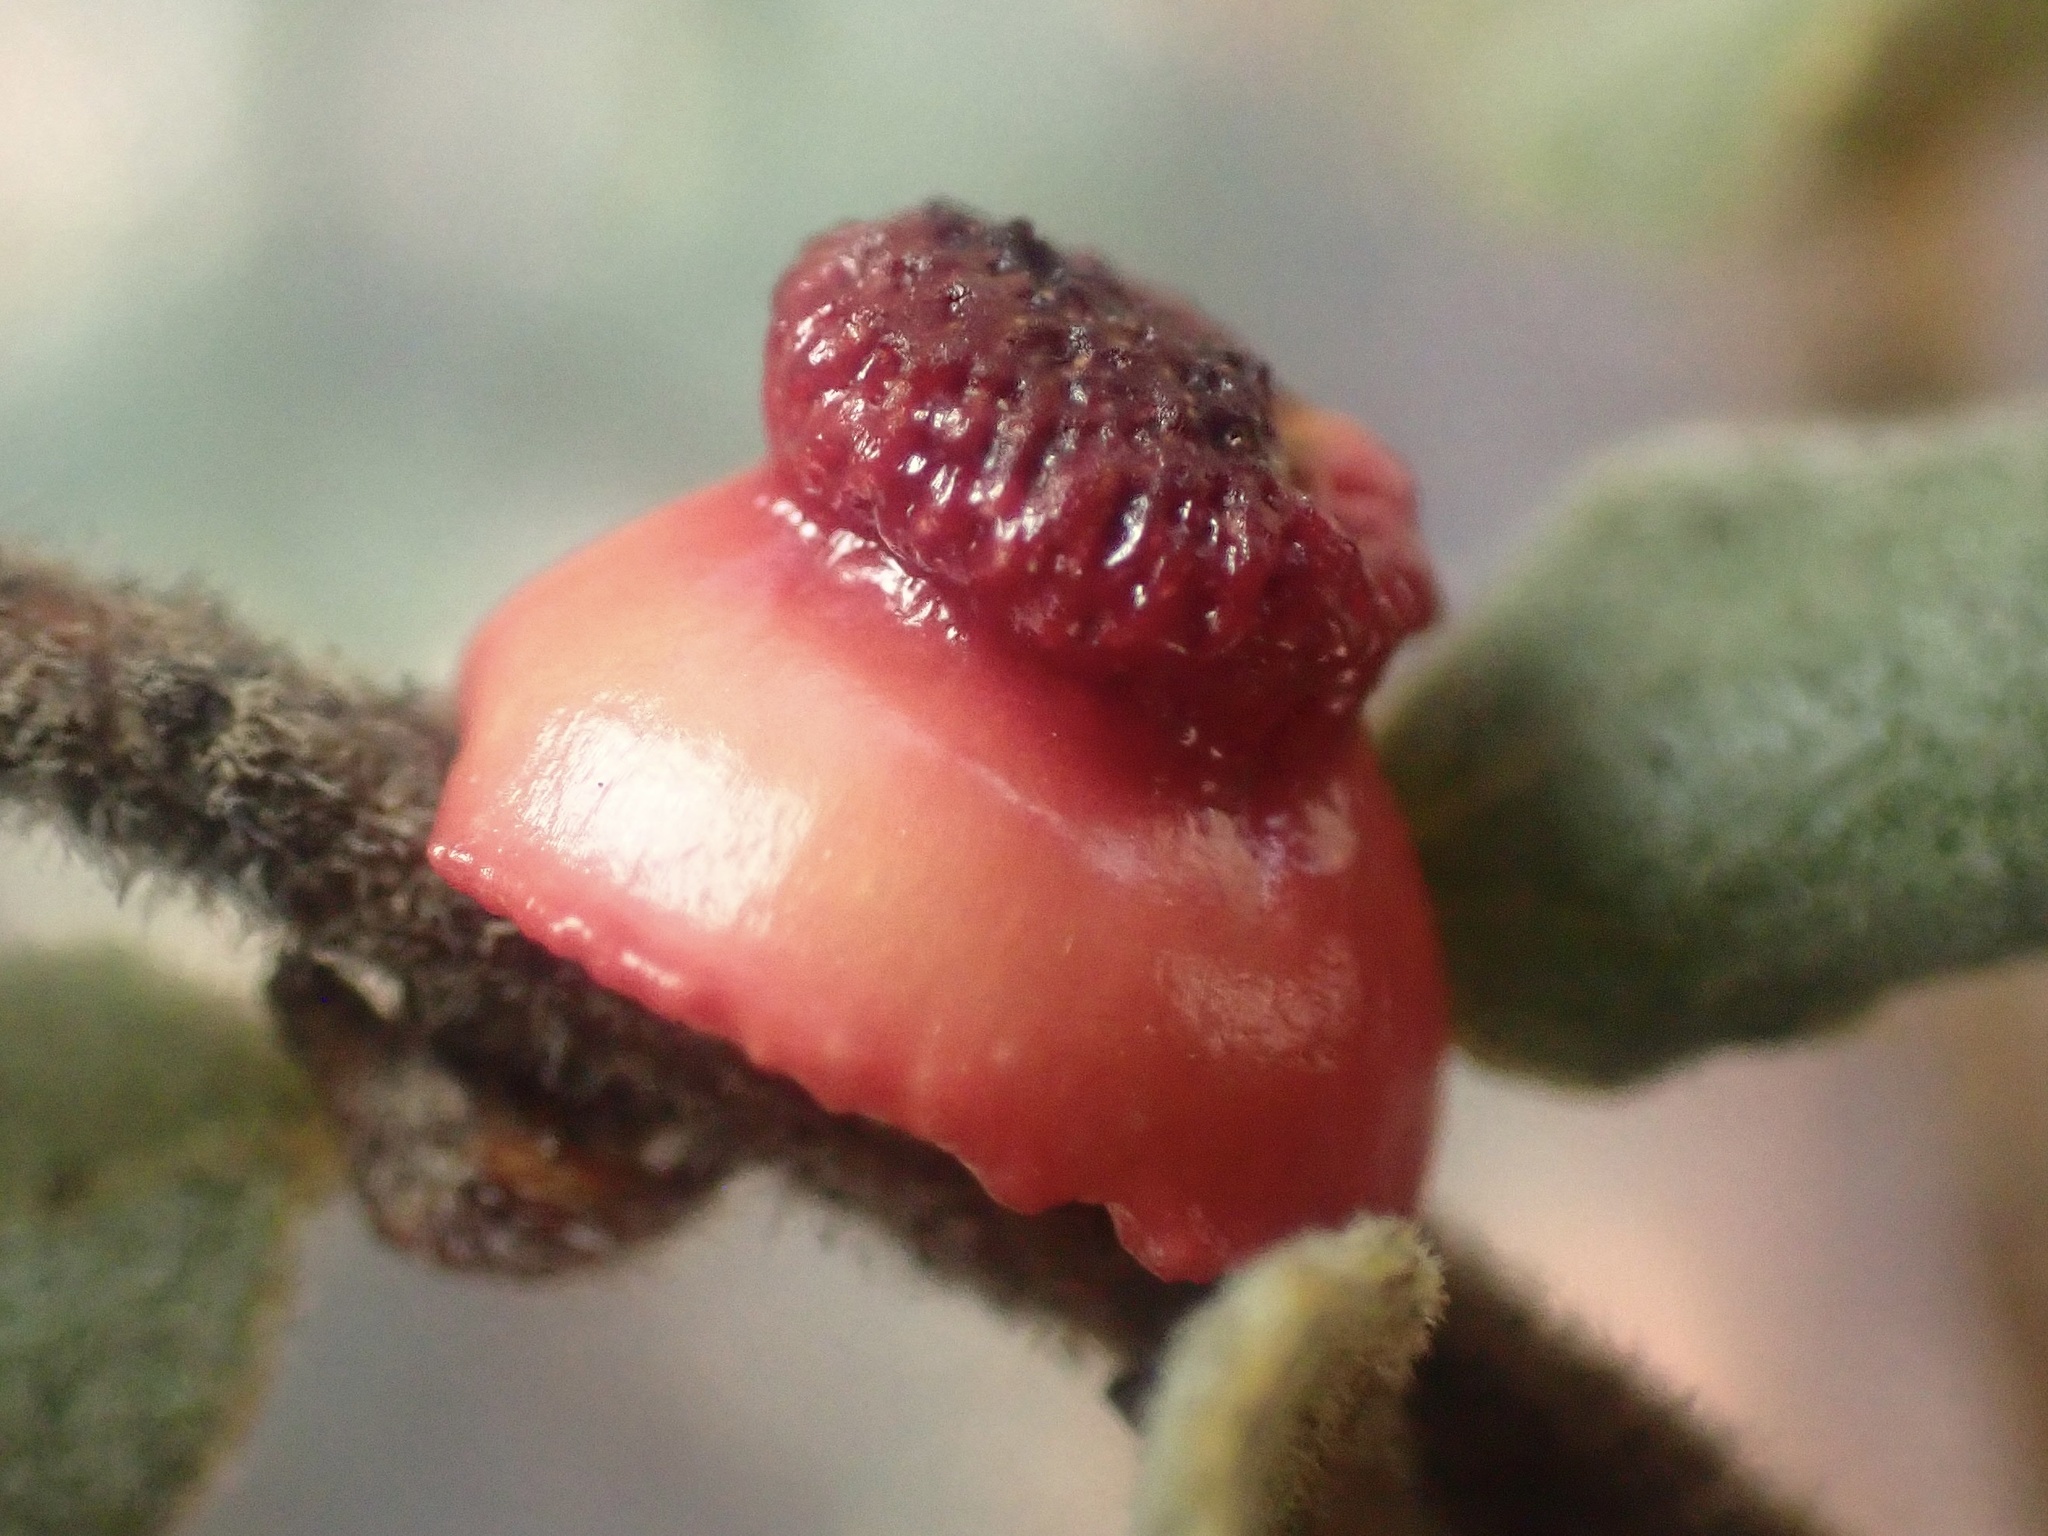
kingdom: Animalia
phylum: Arthropoda
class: Insecta
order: Hymenoptera
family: Cynipidae
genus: Disholcaspis
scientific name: Disholcaspis prehensa
